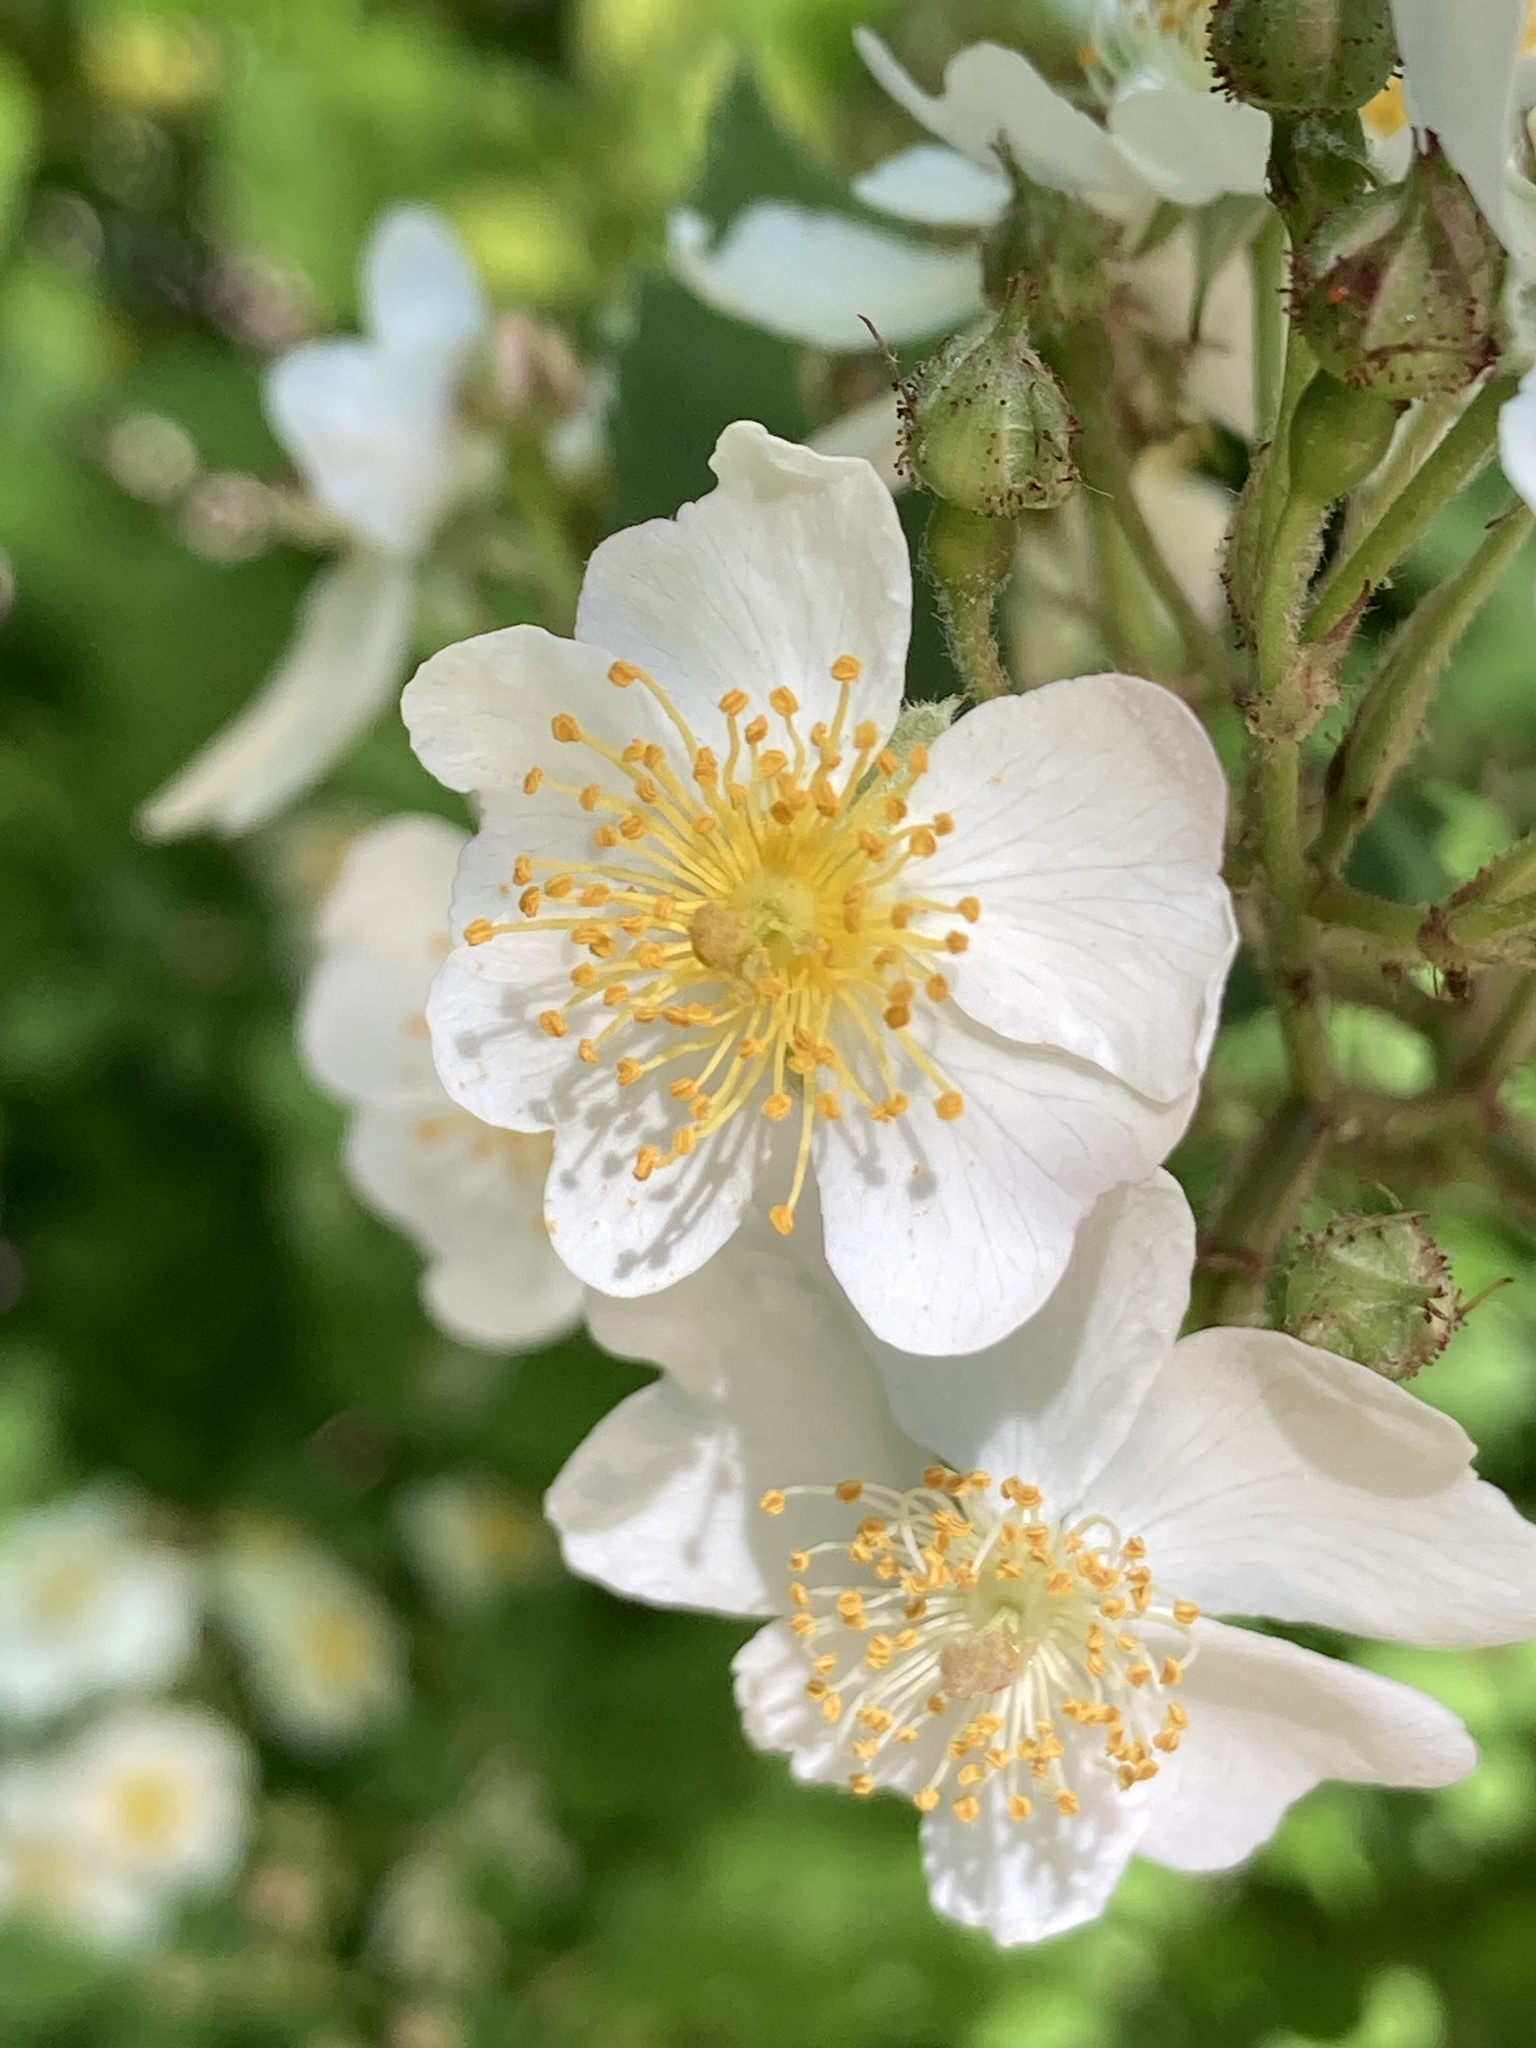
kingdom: Plantae
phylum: Tracheophyta
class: Magnoliopsida
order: Rosales
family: Rosaceae
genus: Rosa
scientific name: Rosa multiflora
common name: Multiflora rose
